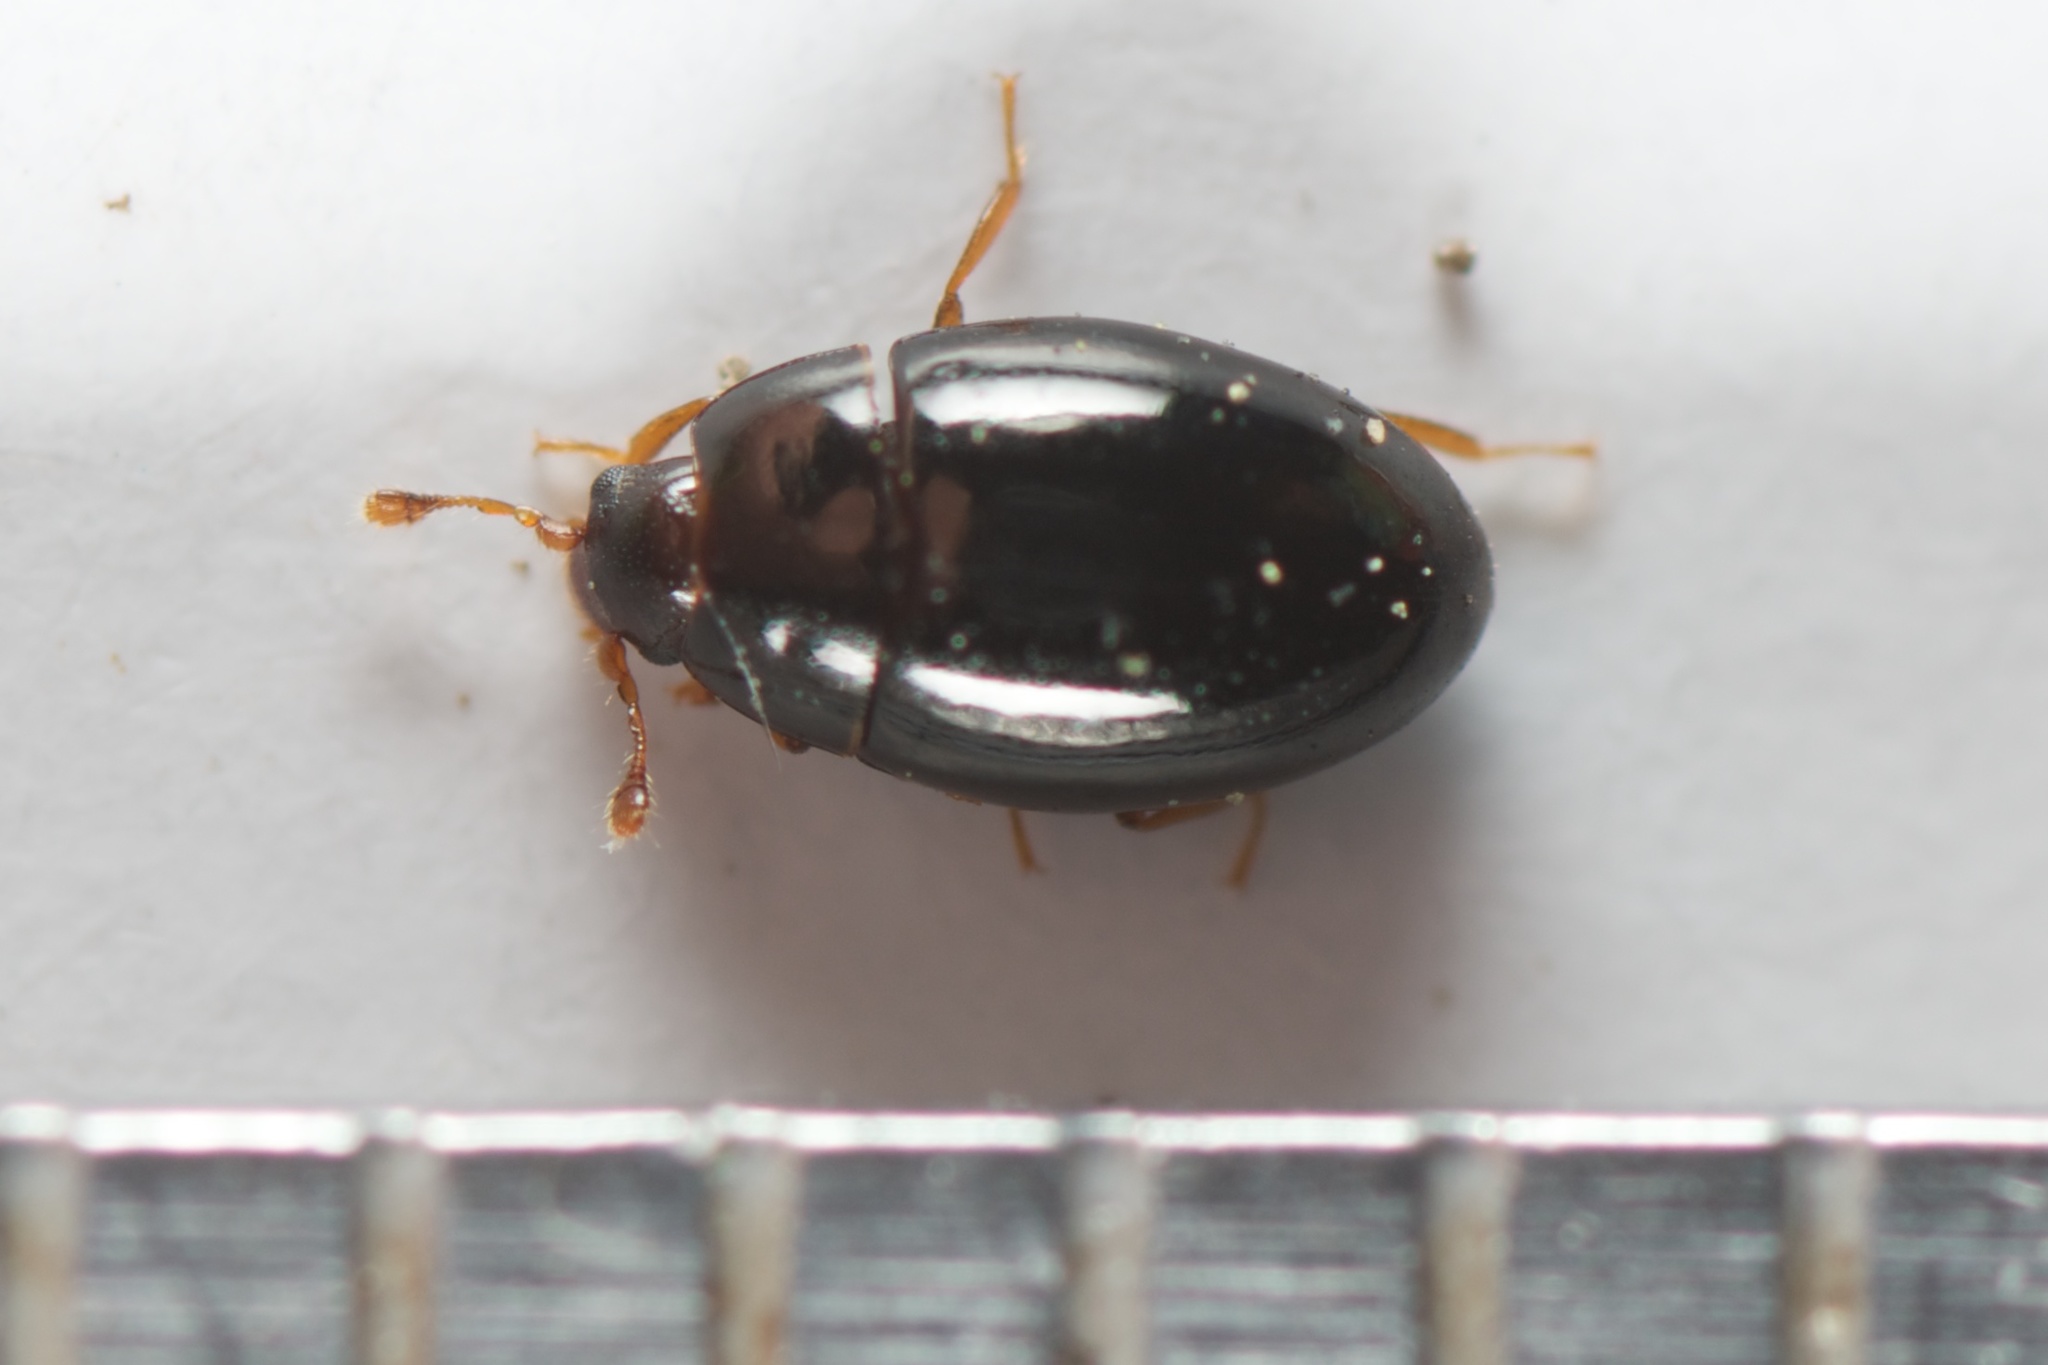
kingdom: Animalia
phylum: Arthropoda
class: Insecta
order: Coleoptera
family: Cerylonidae
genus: Hypodacnella
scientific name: Hypodacnella
